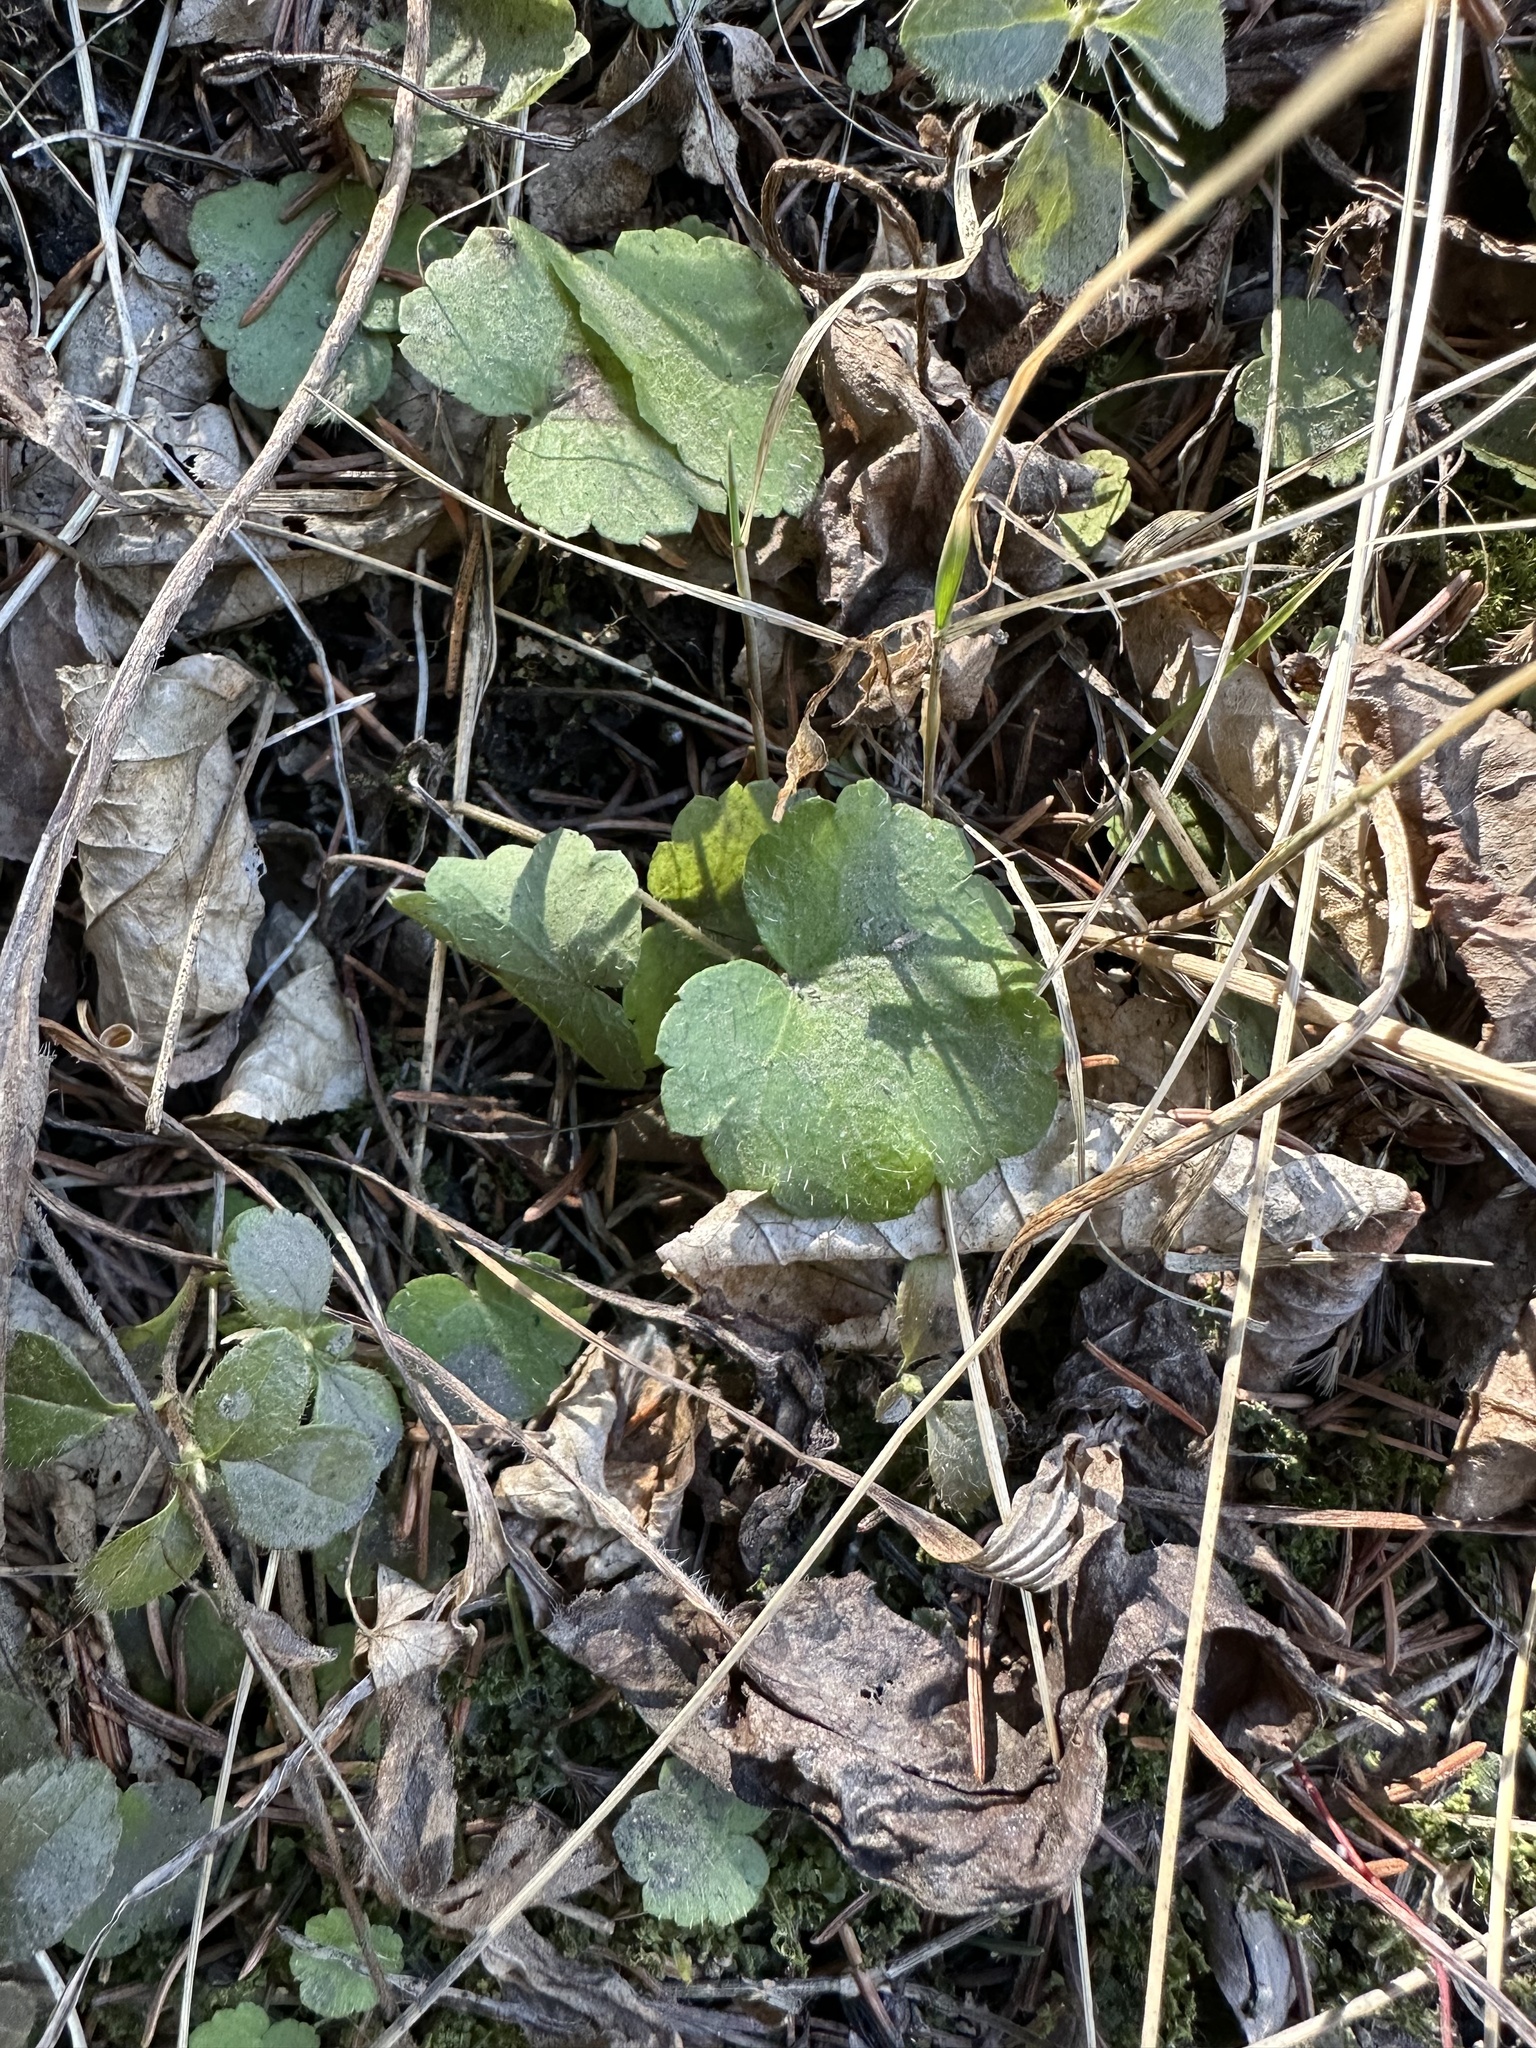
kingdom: Plantae
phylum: Tracheophyta
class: Magnoliopsida
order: Saxifragales
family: Saxifragaceae
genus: Mitella
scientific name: Mitella nuda
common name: Bare-stemmed bishop's-cap
